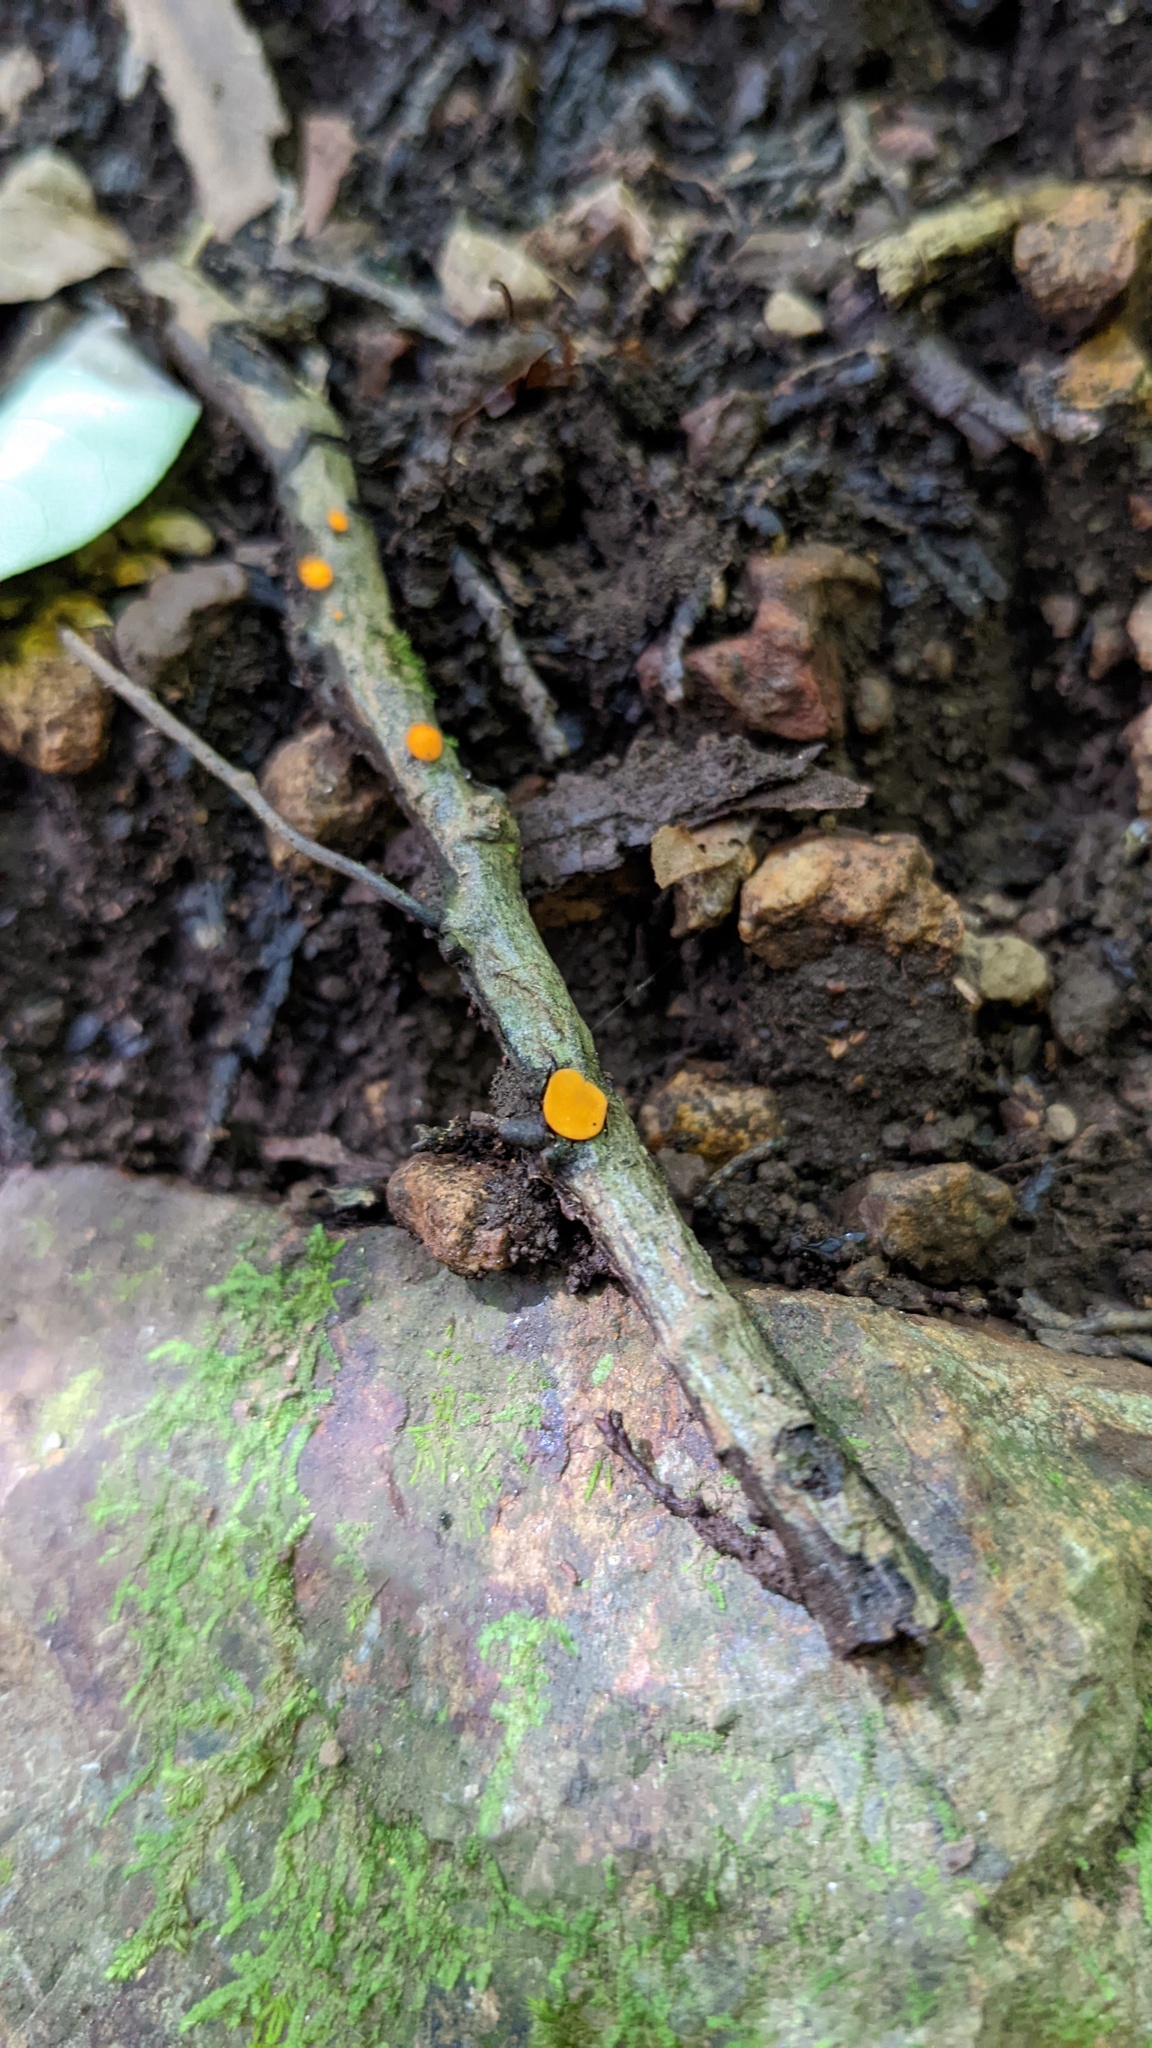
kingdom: Fungi
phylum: Ascomycota
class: Leotiomycetes
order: Helotiales
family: Helotiaceae
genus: Dicephalospora
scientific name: Dicephalospora rufocornea
